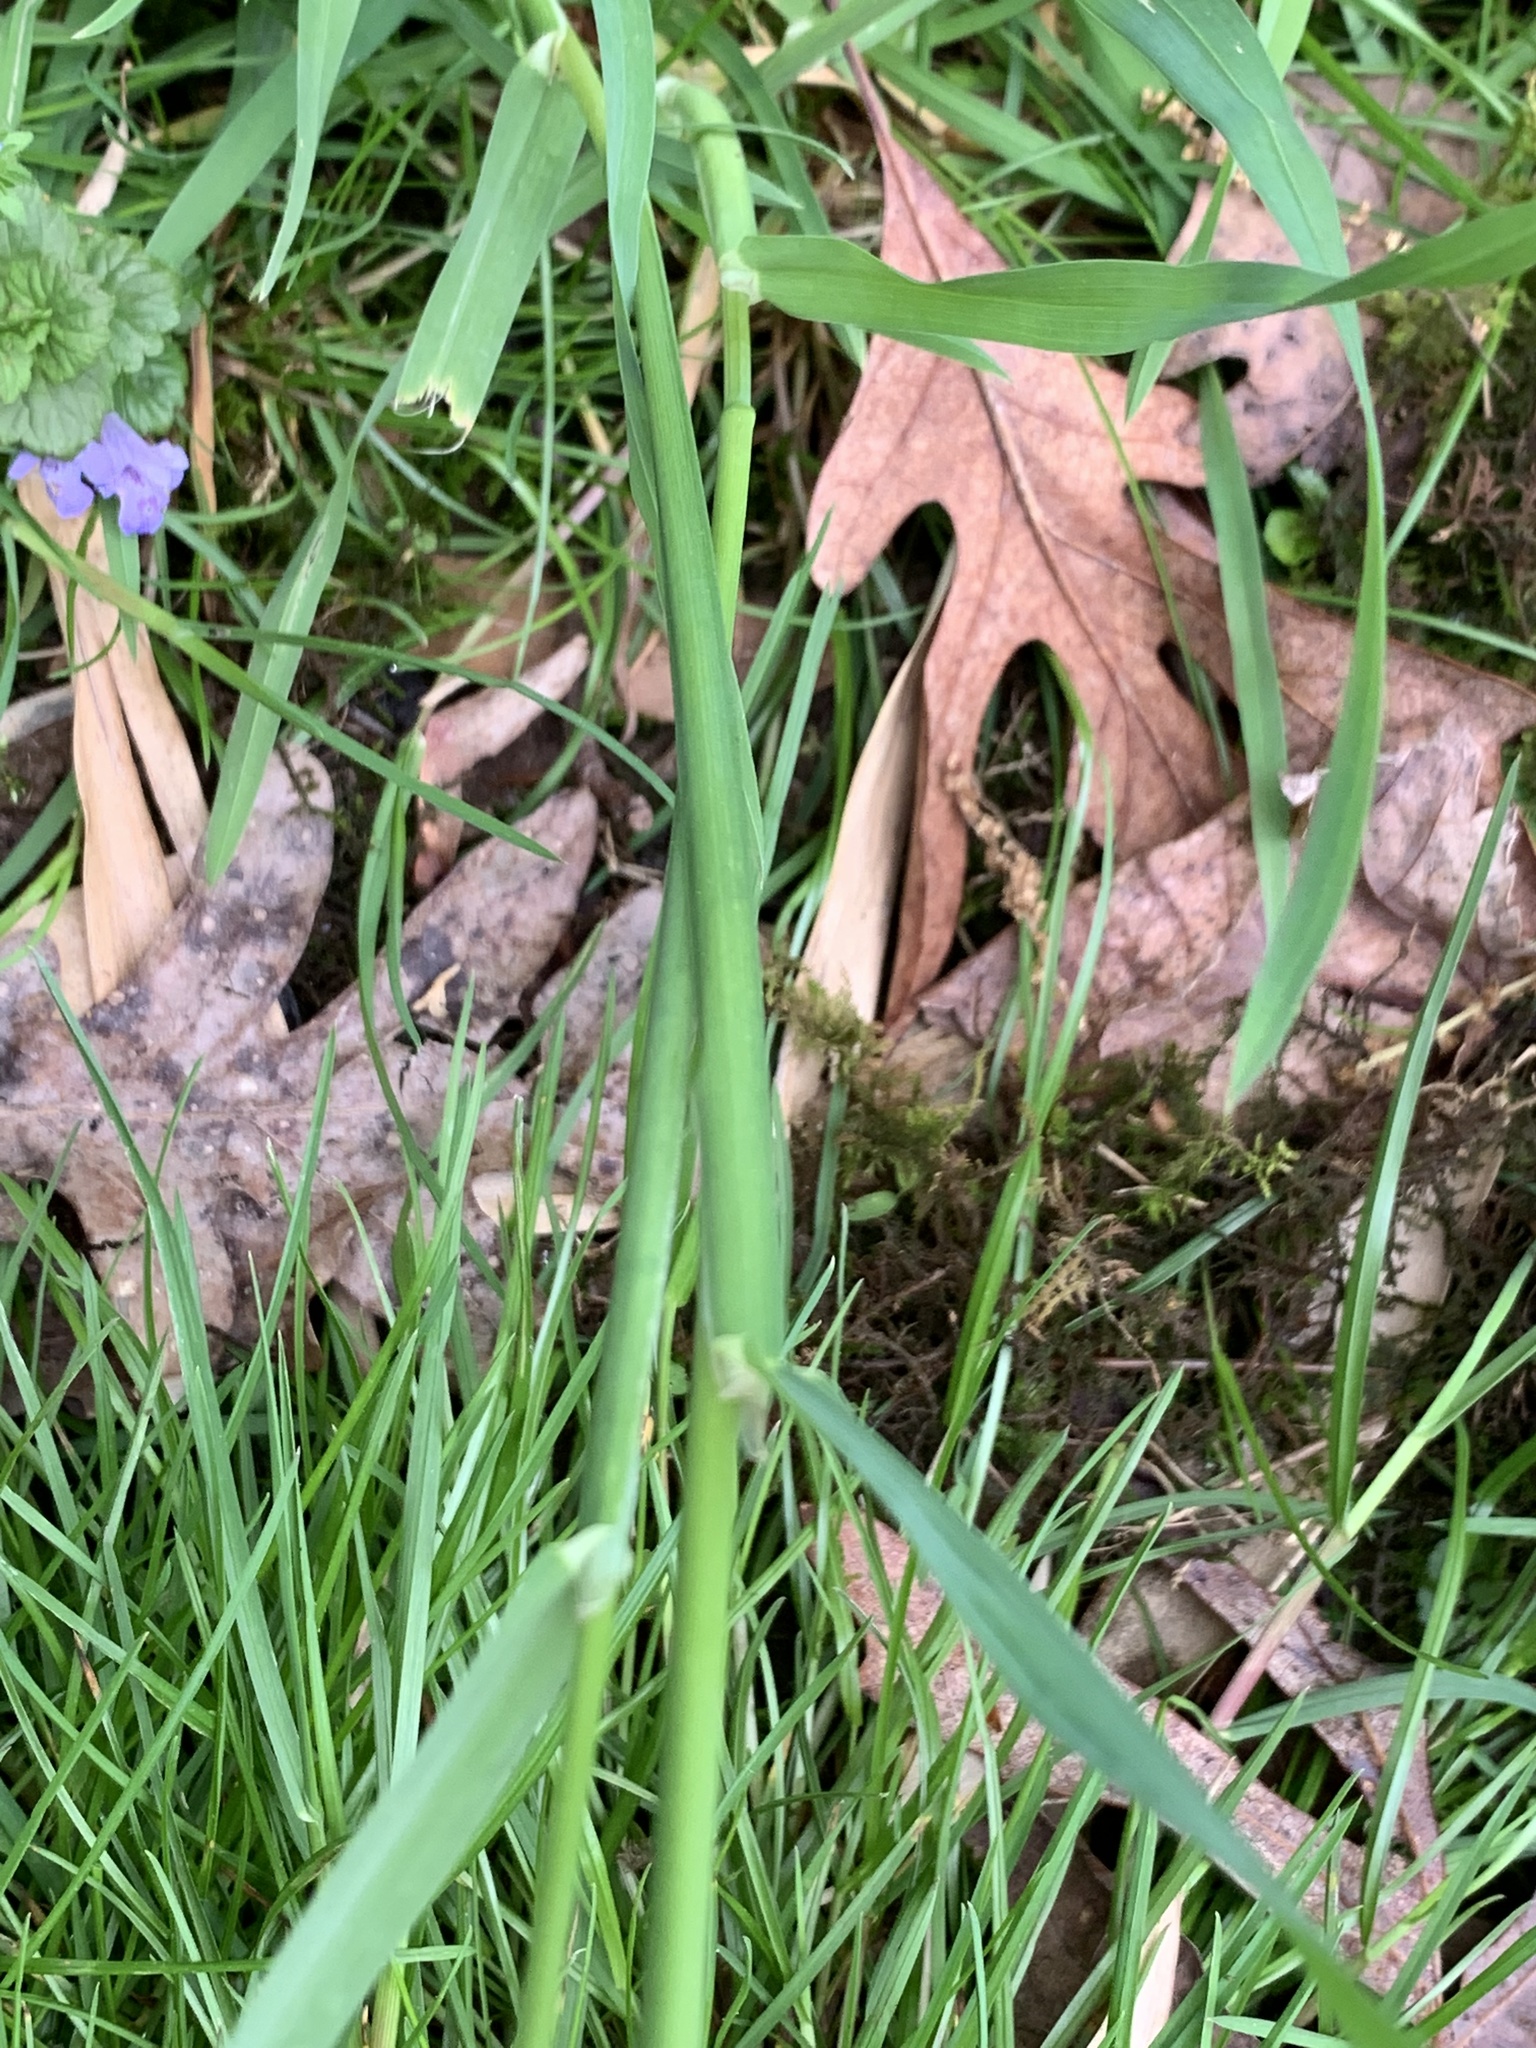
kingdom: Plantae
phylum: Tracheophyta
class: Liliopsida
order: Poales
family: Poaceae
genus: Dactylis
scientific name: Dactylis glomerata
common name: Orchardgrass
